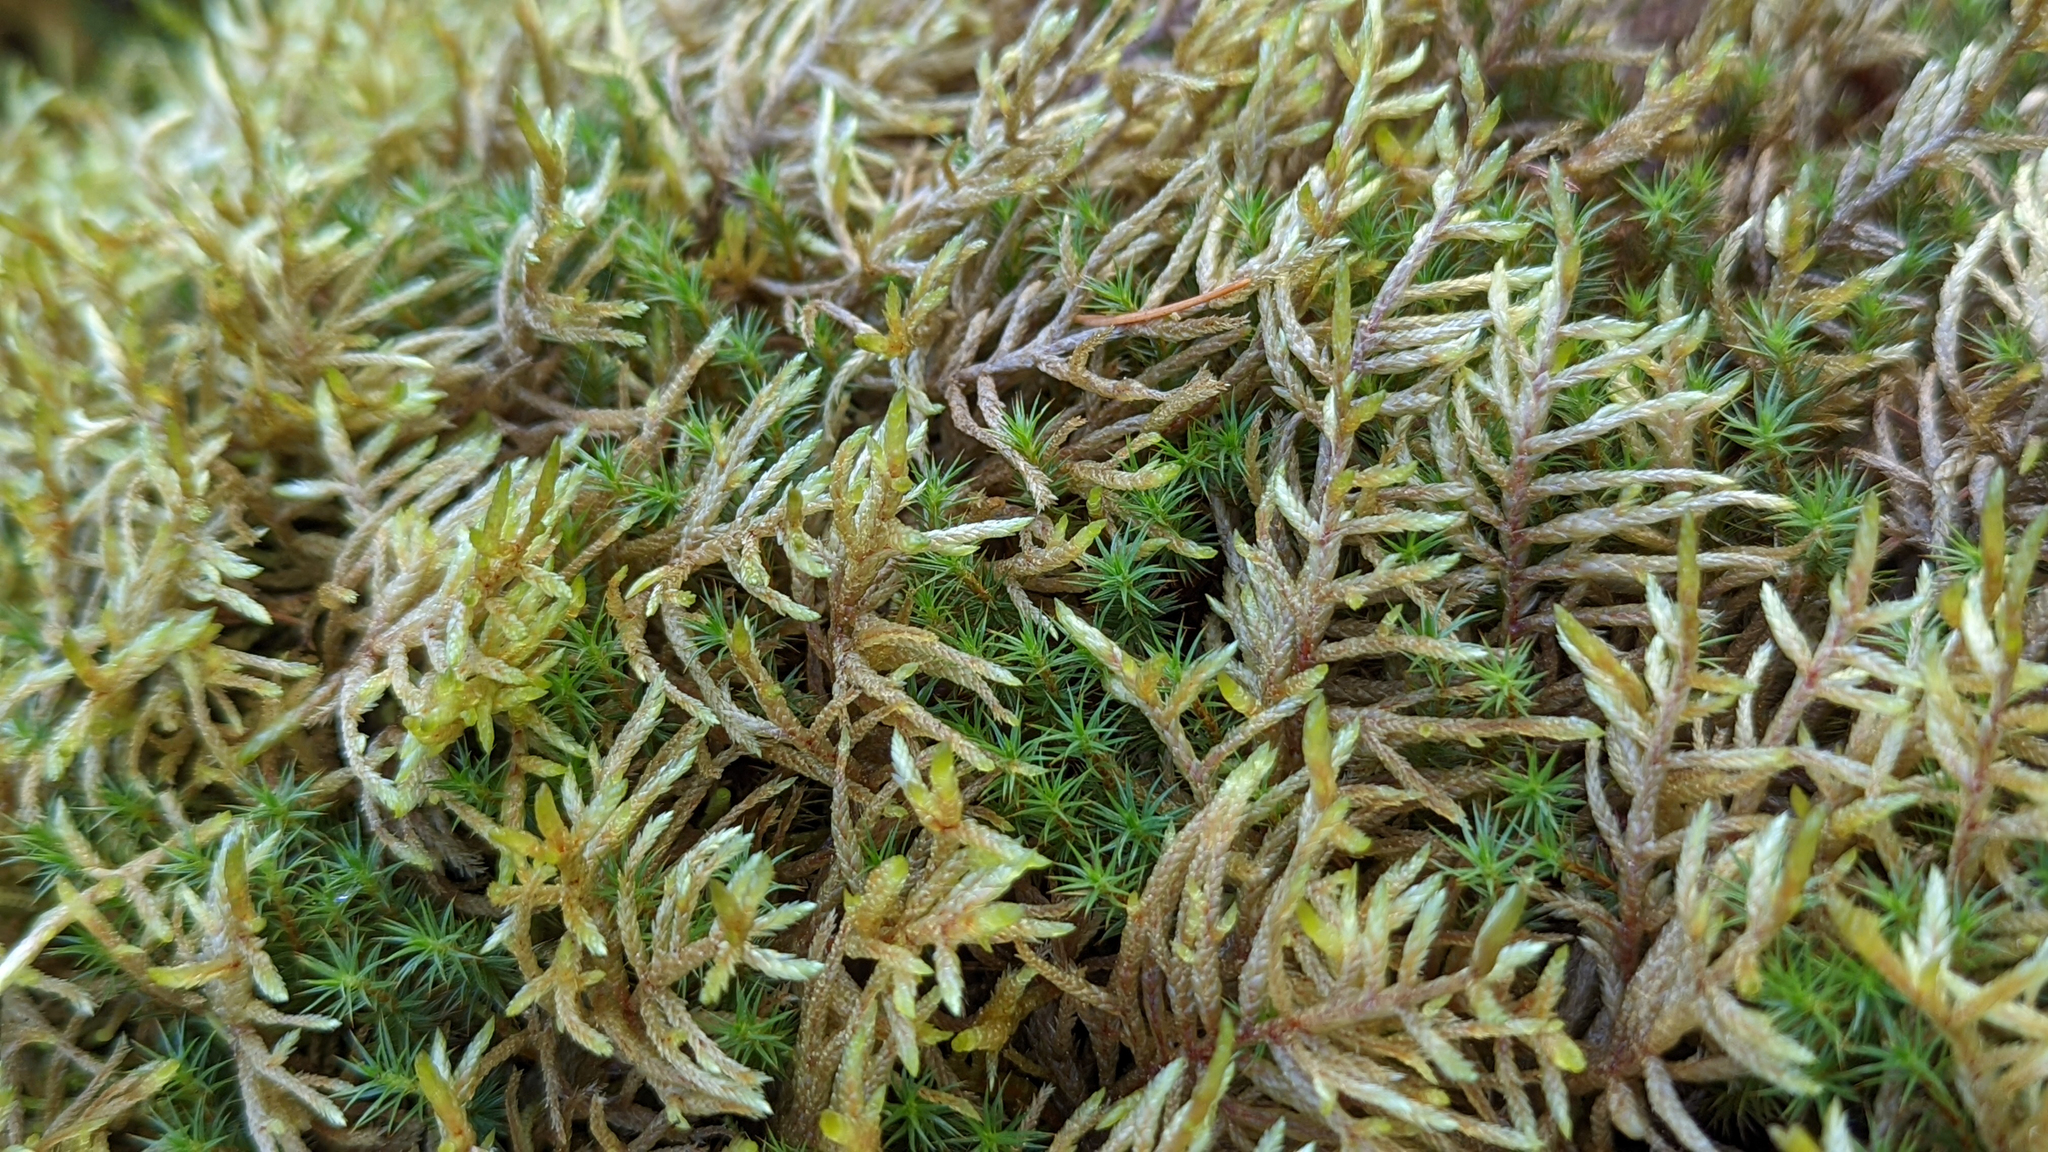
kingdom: Plantae
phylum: Bryophyta
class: Bryopsida
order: Hypnales
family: Hylocomiaceae
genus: Pleurozium
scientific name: Pleurozium schreberi
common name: Red-stemmed feather moss
